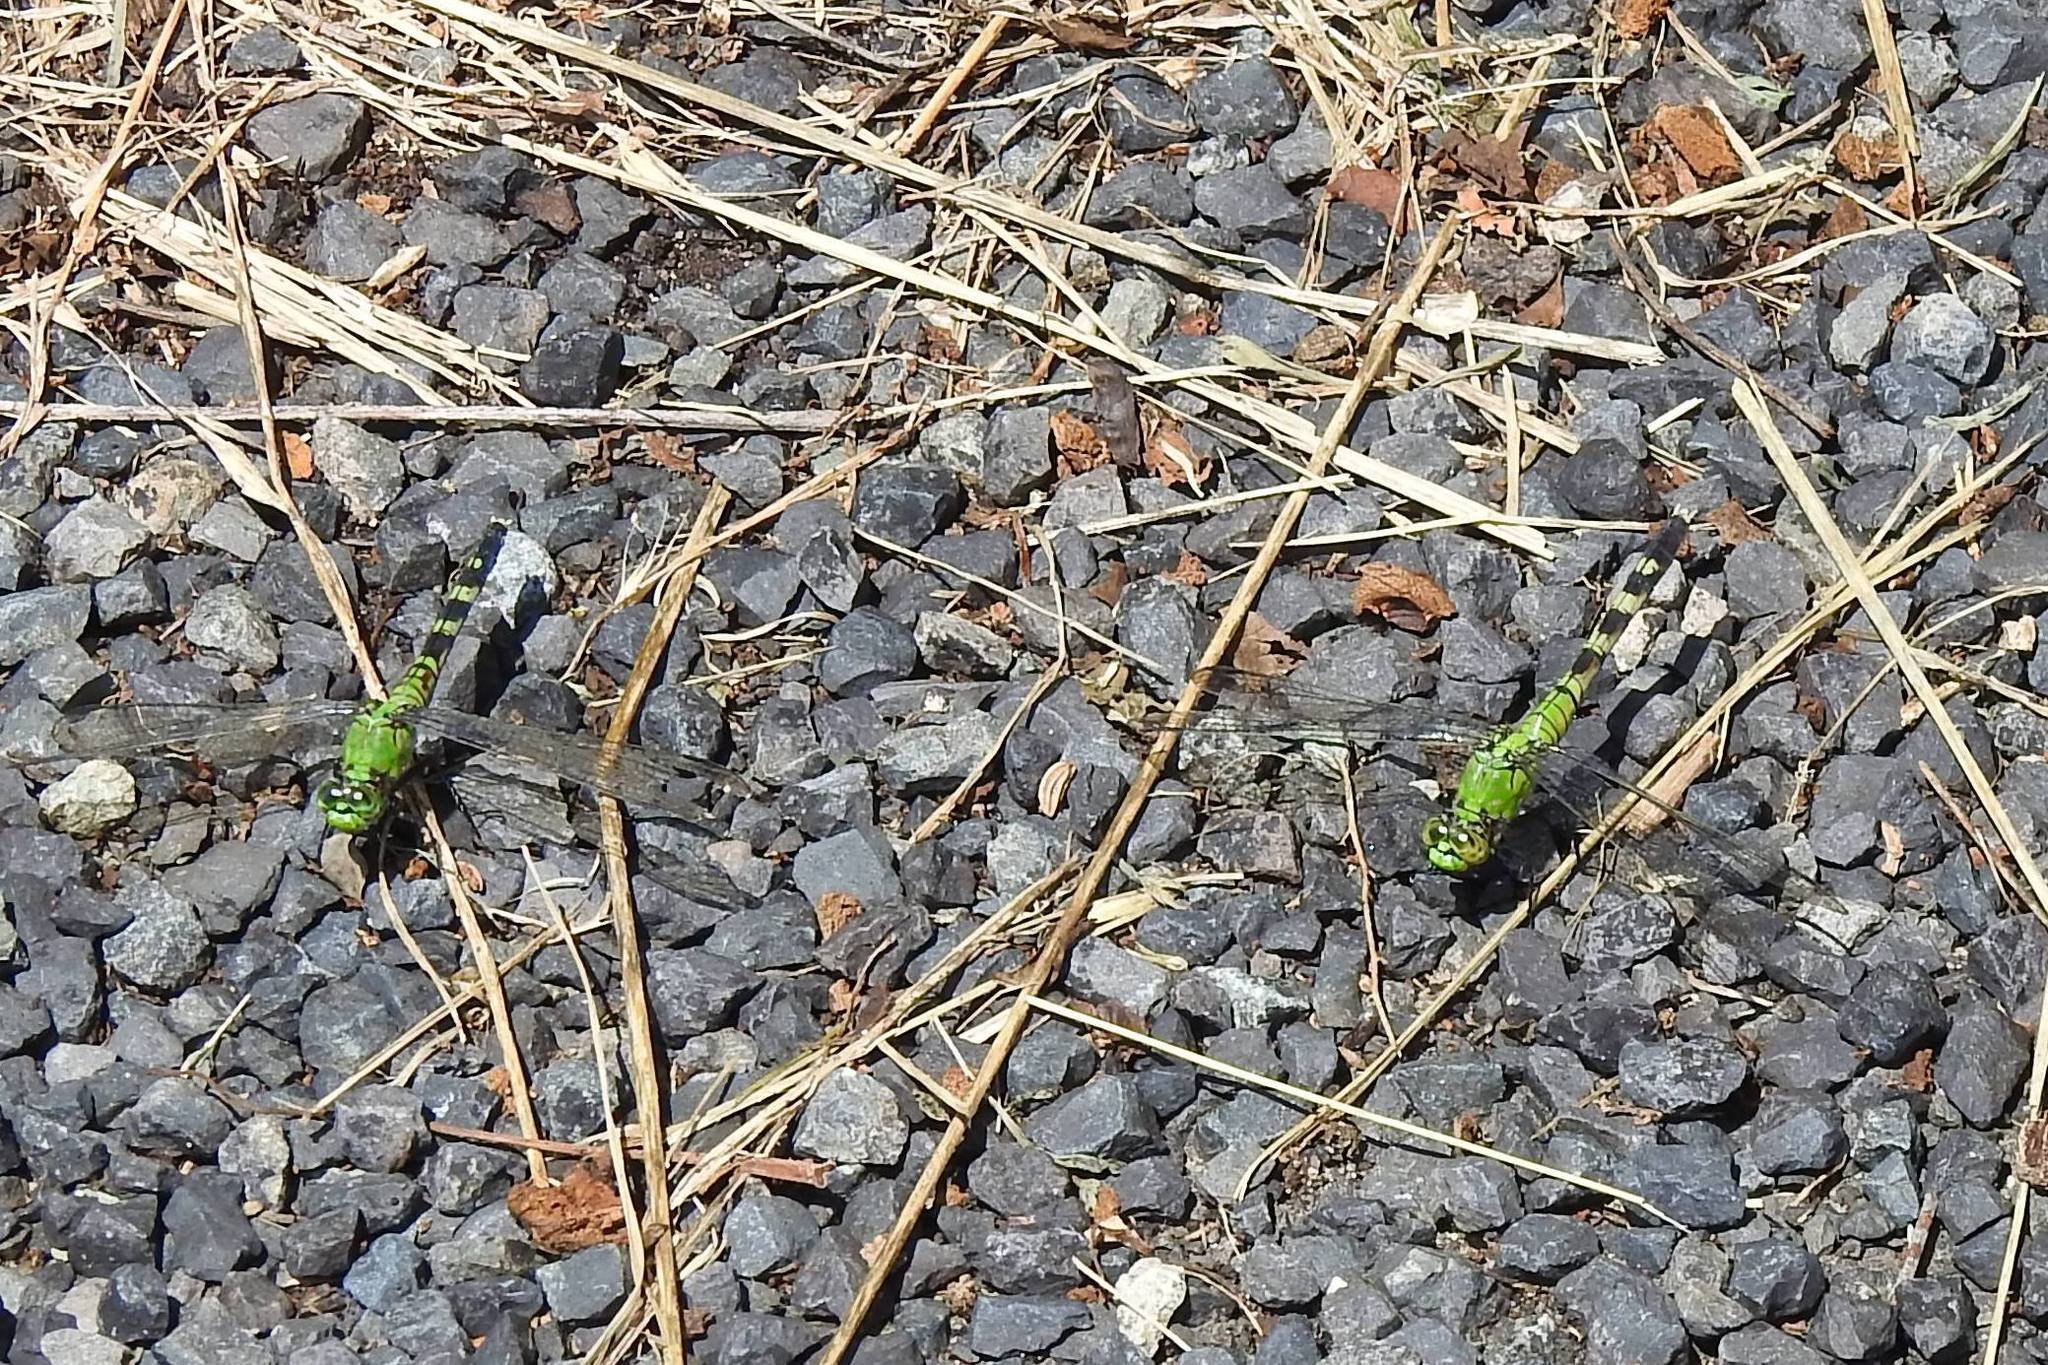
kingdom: Animalia
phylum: Arthropoda
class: Insecta
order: Odonata
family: Libellulidae
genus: Erythemis
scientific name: Erythemis simplicicollis
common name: Eastern pondhawk
